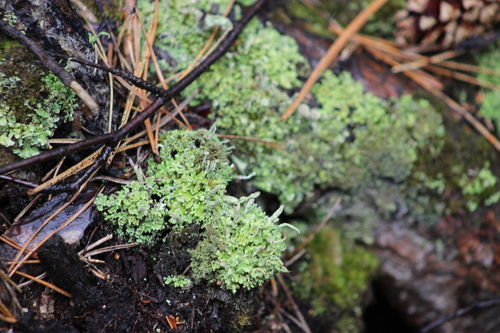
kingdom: Fungi
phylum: Ascomycota
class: Lecanoromycetes
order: Lecanorales
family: Cladoniaceae
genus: Cladonia
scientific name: Cladonia
